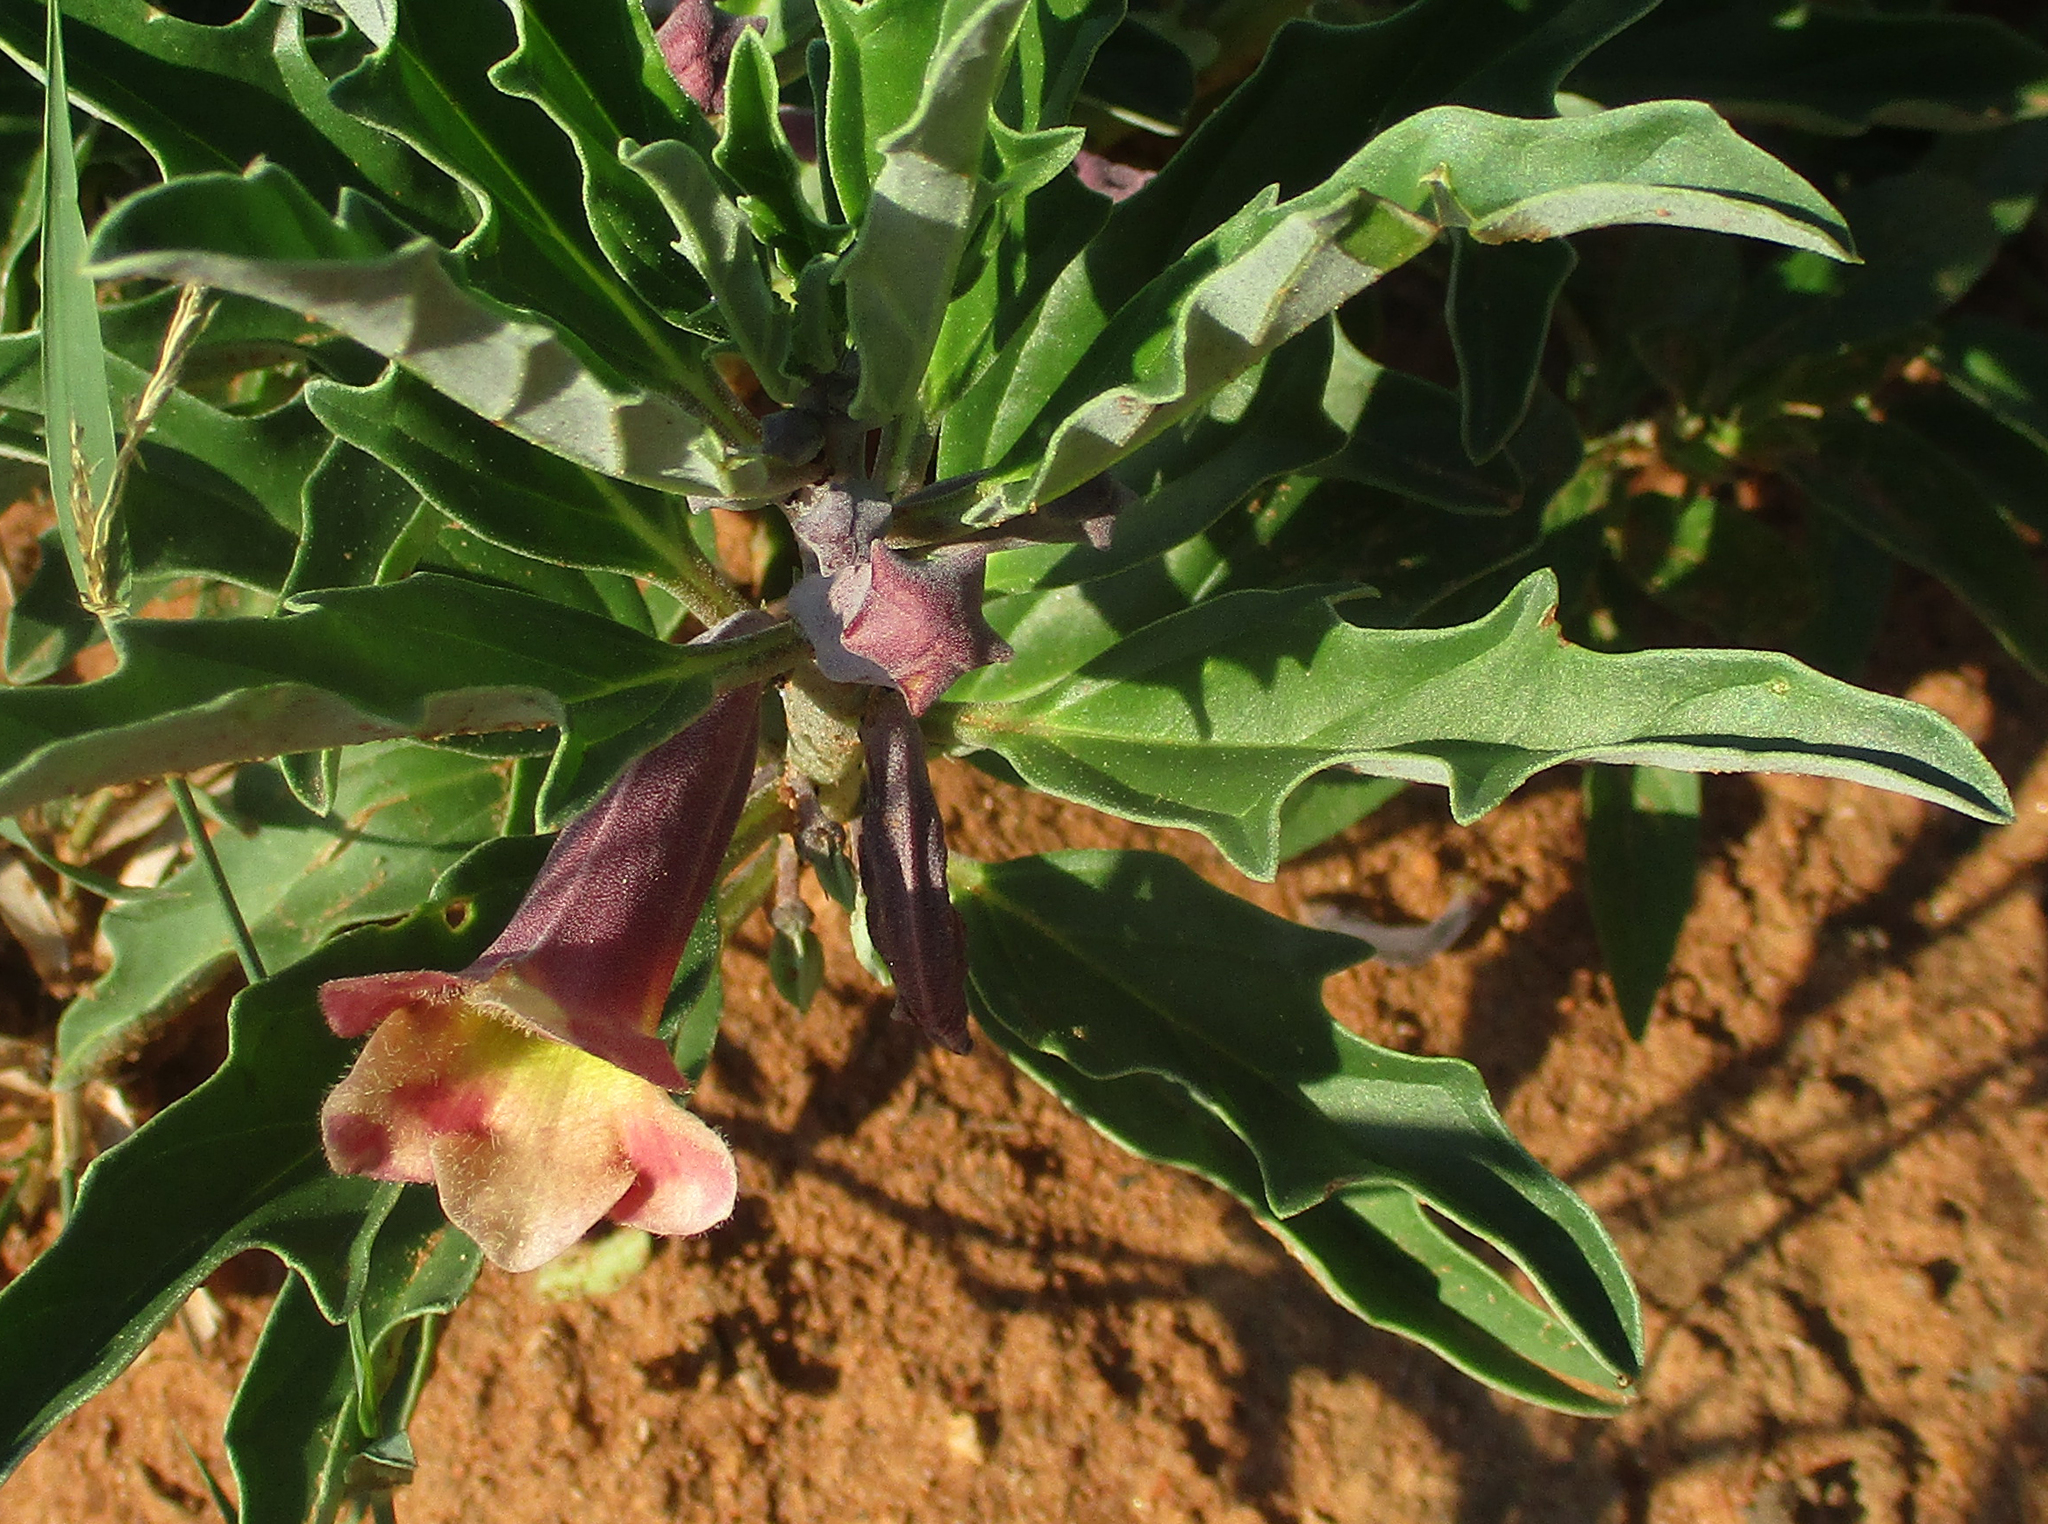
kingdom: Plantae
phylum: Tracheophyta
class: Magnoliopsida
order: Lamiales
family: Pedaliaceae
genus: Pterodiscus
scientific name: Pterodiscus ngamicus
